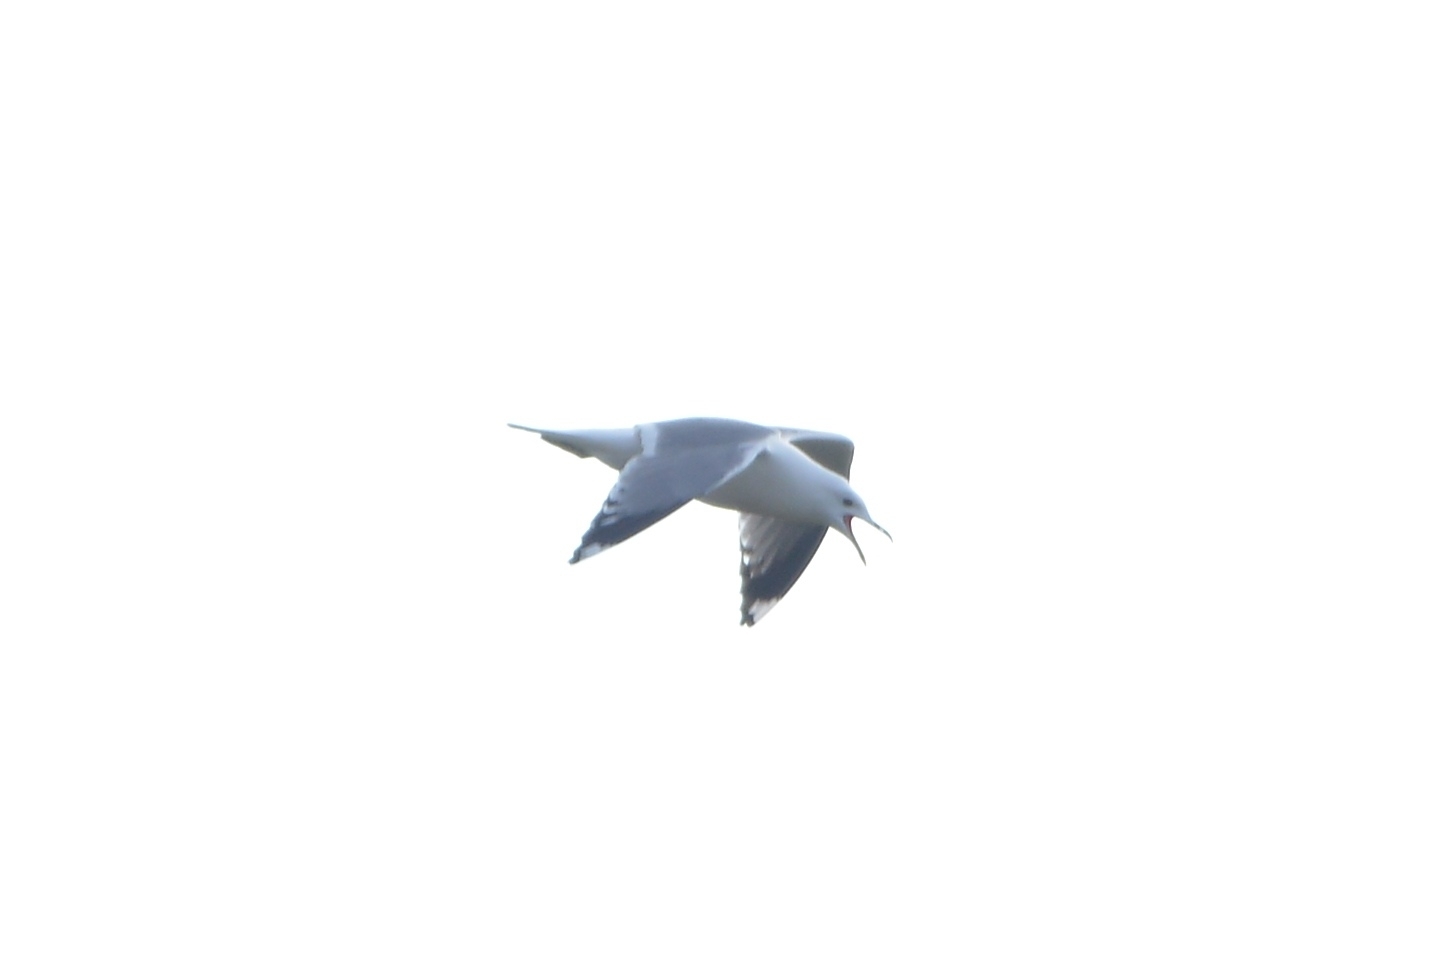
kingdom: Animalia
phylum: Chordata
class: Aves
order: Charadriiformes
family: Laridae
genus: Larus
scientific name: Larus canus
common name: Mew gull
